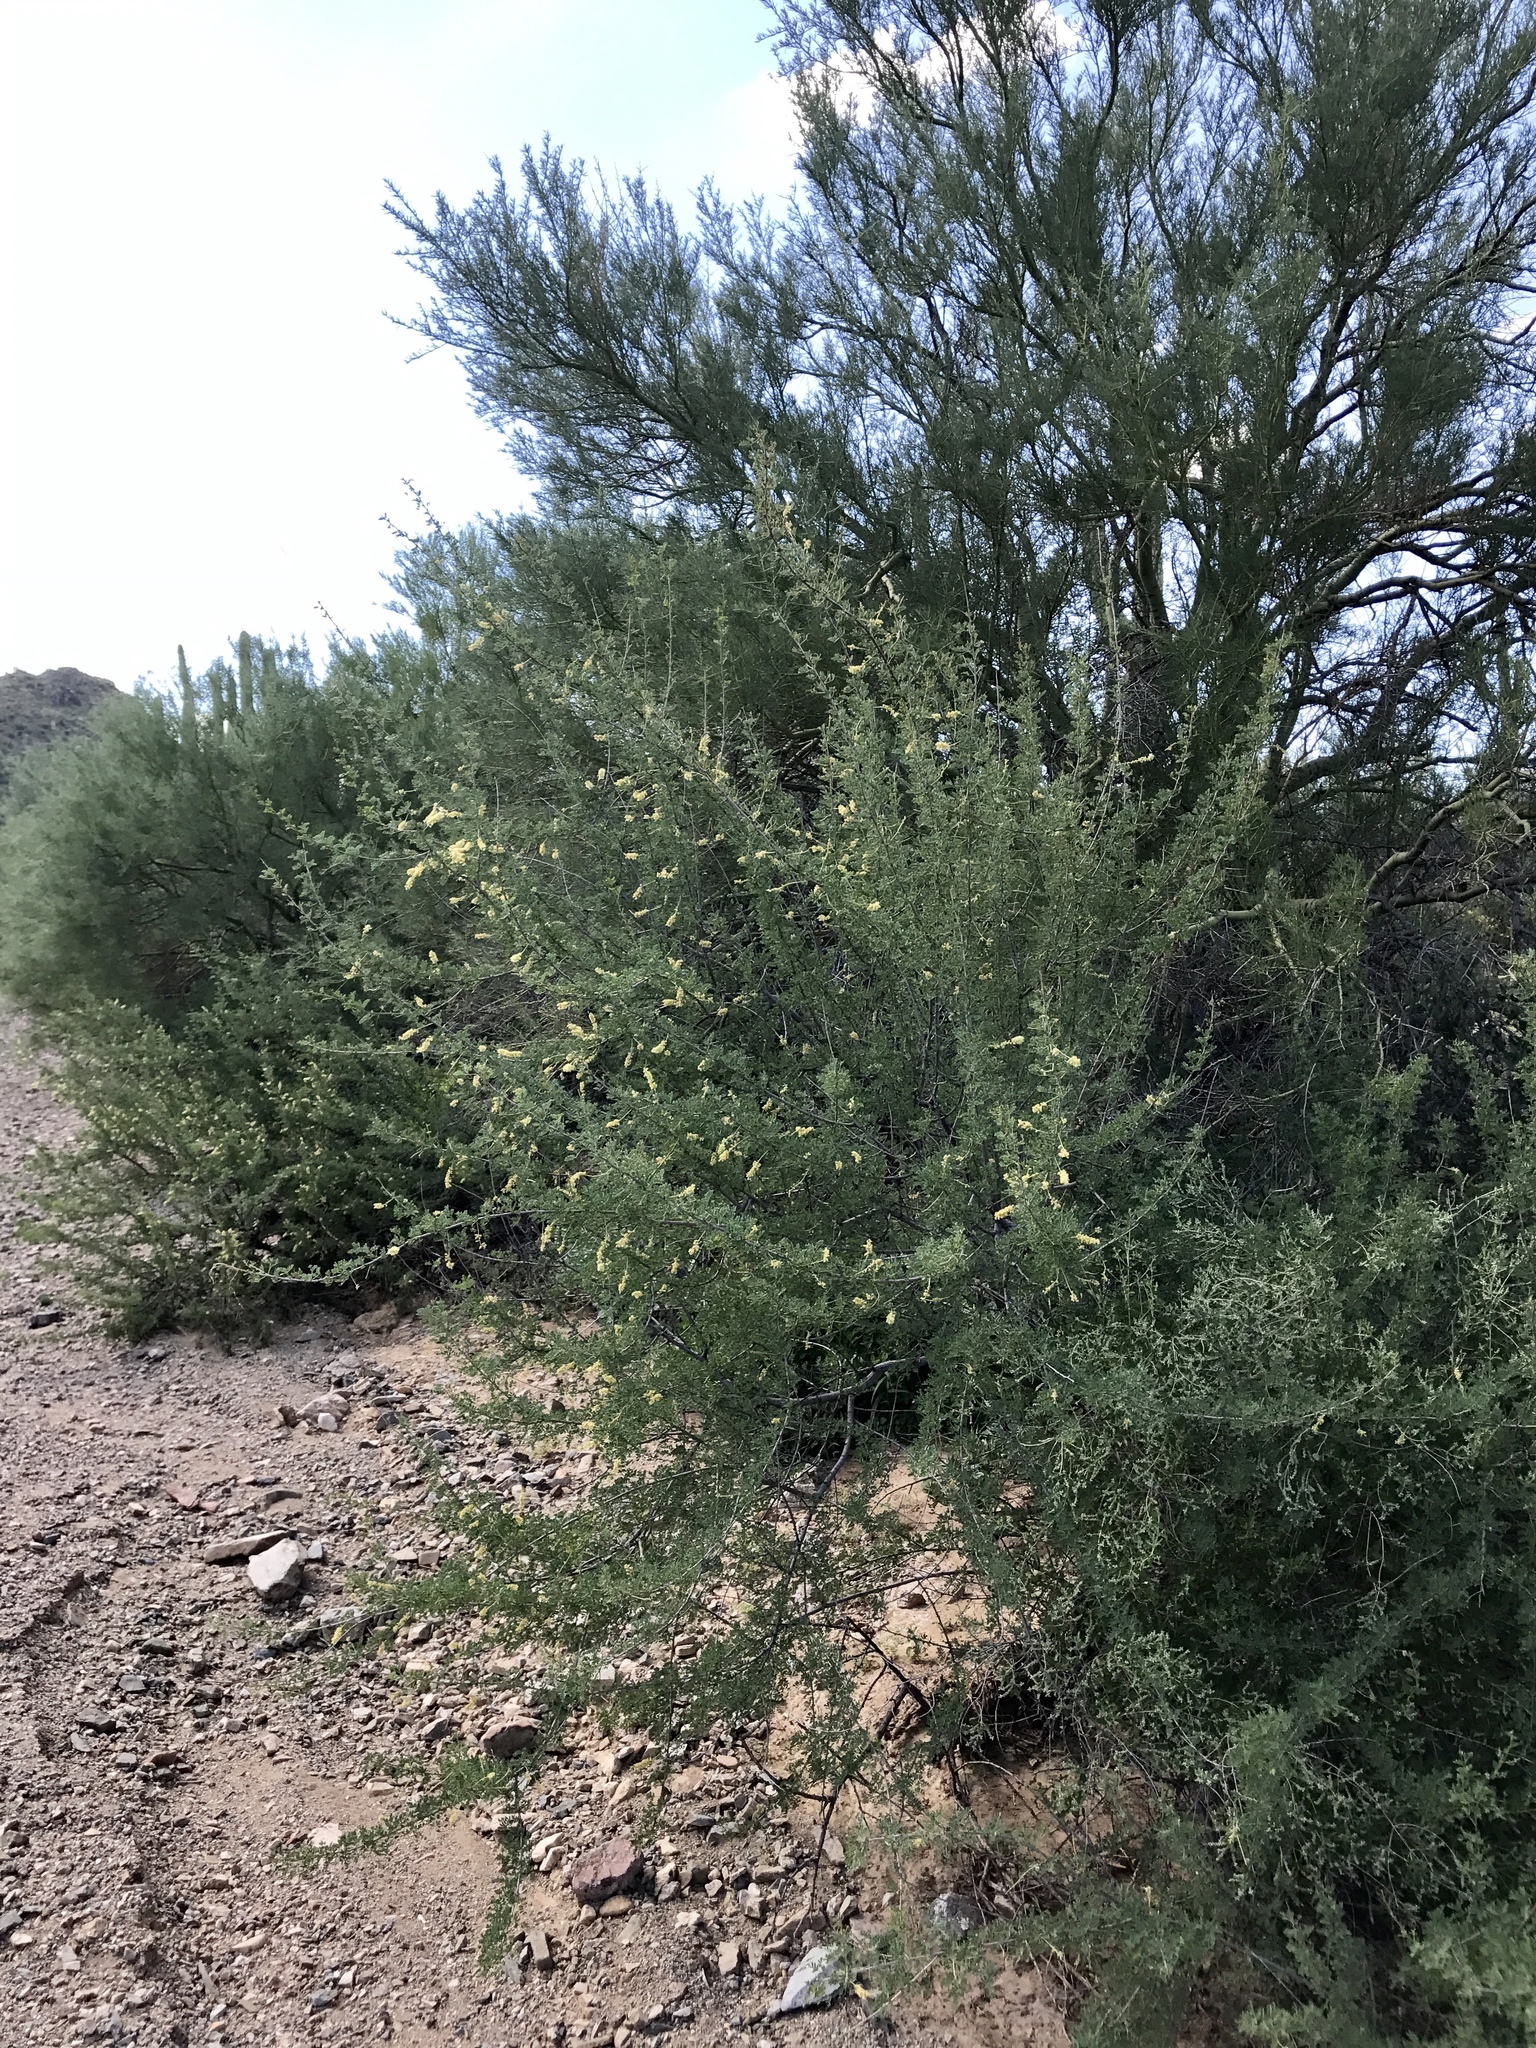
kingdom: Plantae
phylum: Tracheophyta
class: Magnoliopsida
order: Fabales
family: Fabaceae
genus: Senegalia
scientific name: Senegalia greggii
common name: Texas-mimosa
